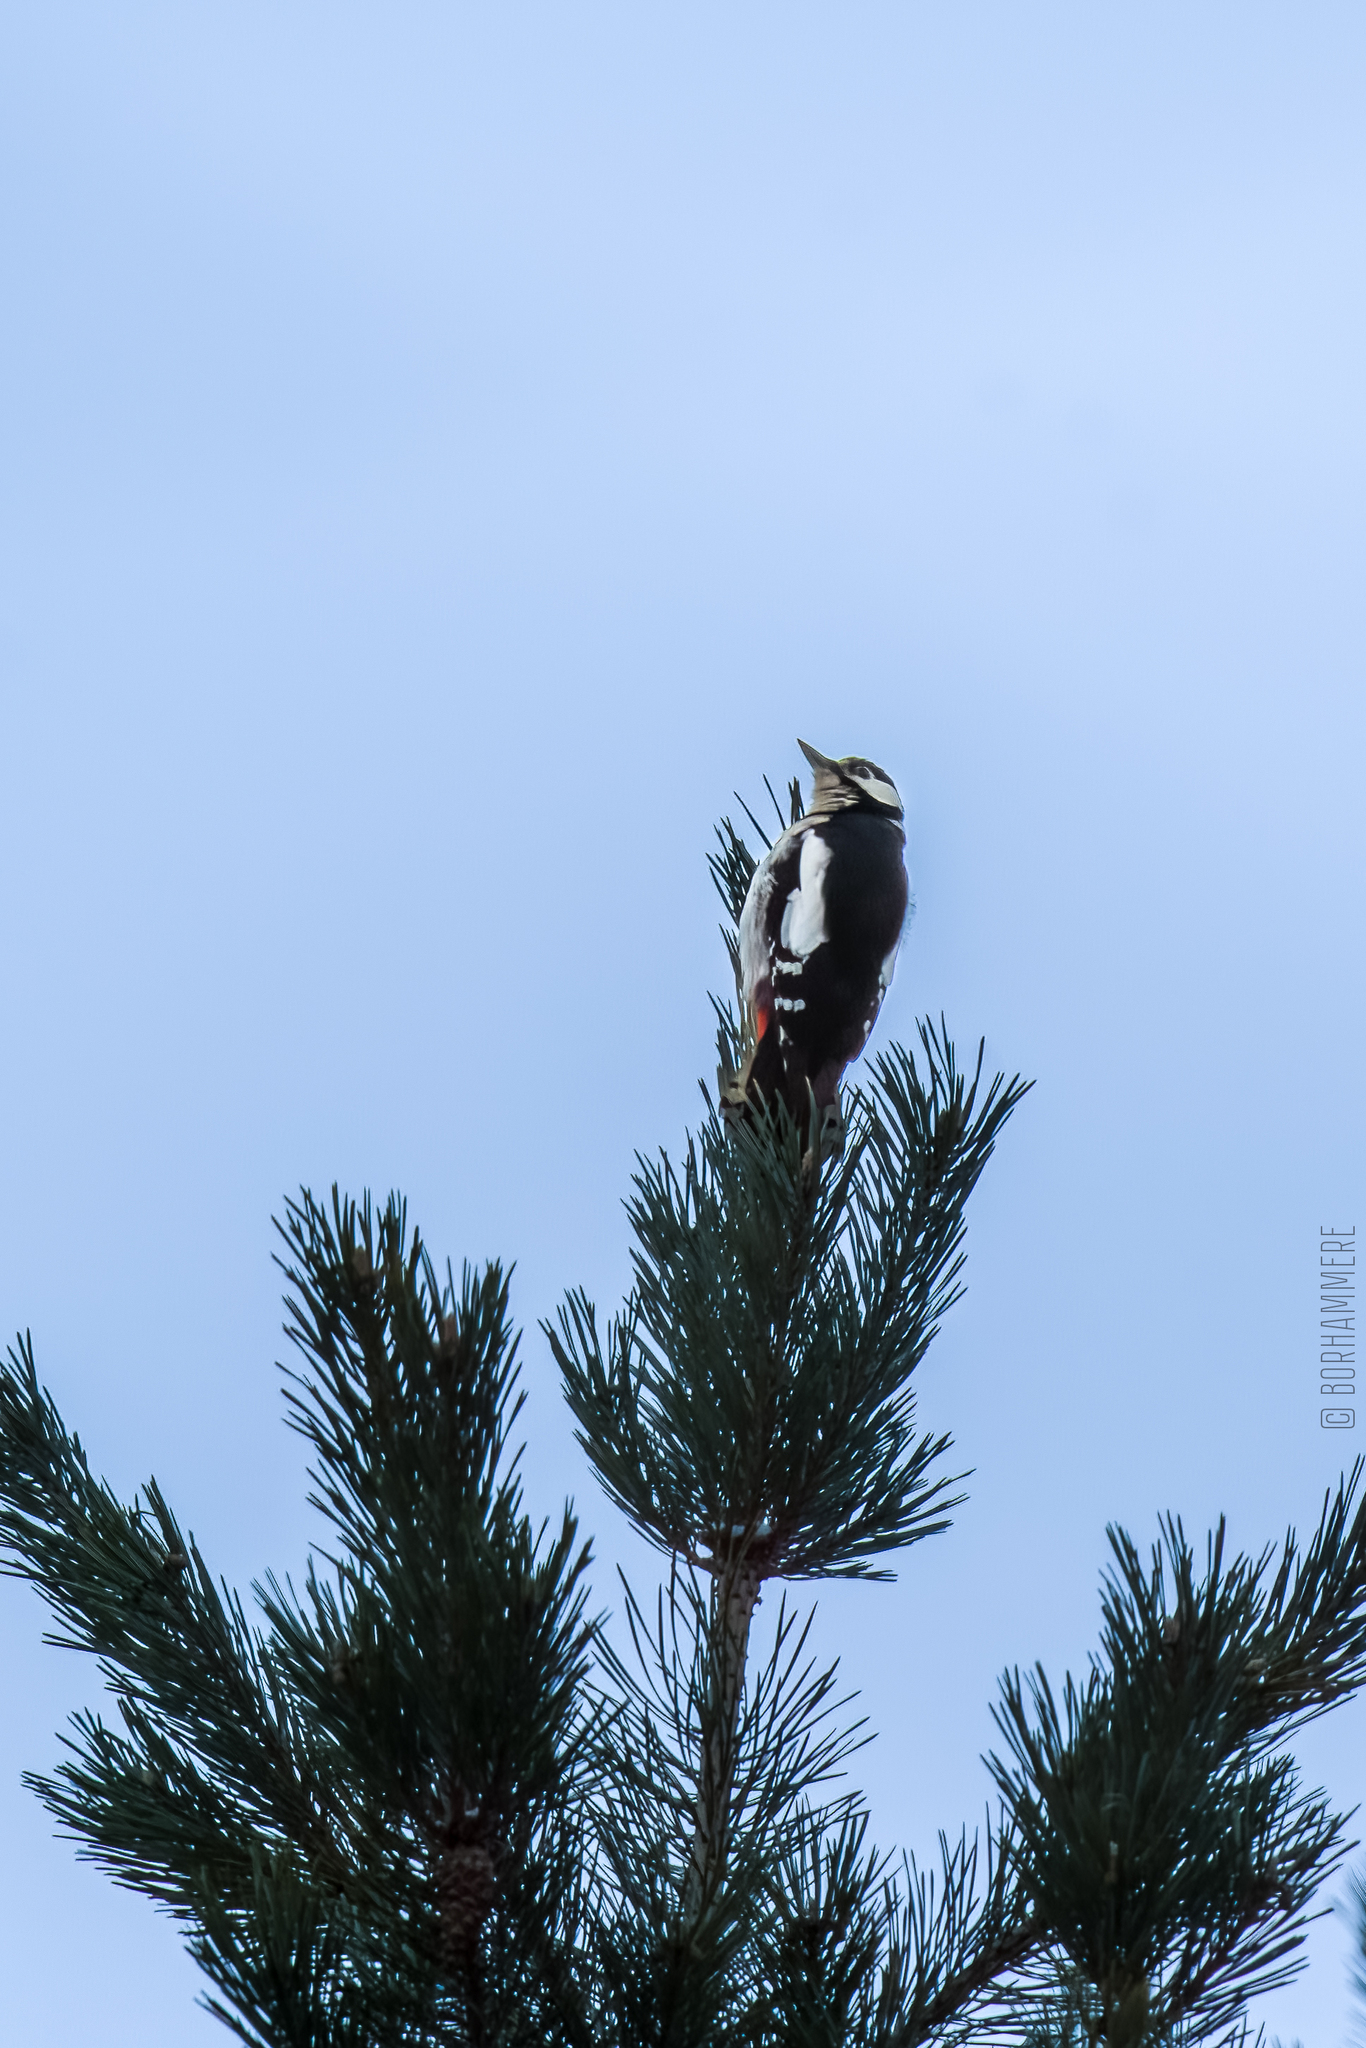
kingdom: Animalia
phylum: Chordata
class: Aves
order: Piciformes
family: Picidae
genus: Dendrocopos
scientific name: Dendrocopos major
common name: Great spotted woodpecker
